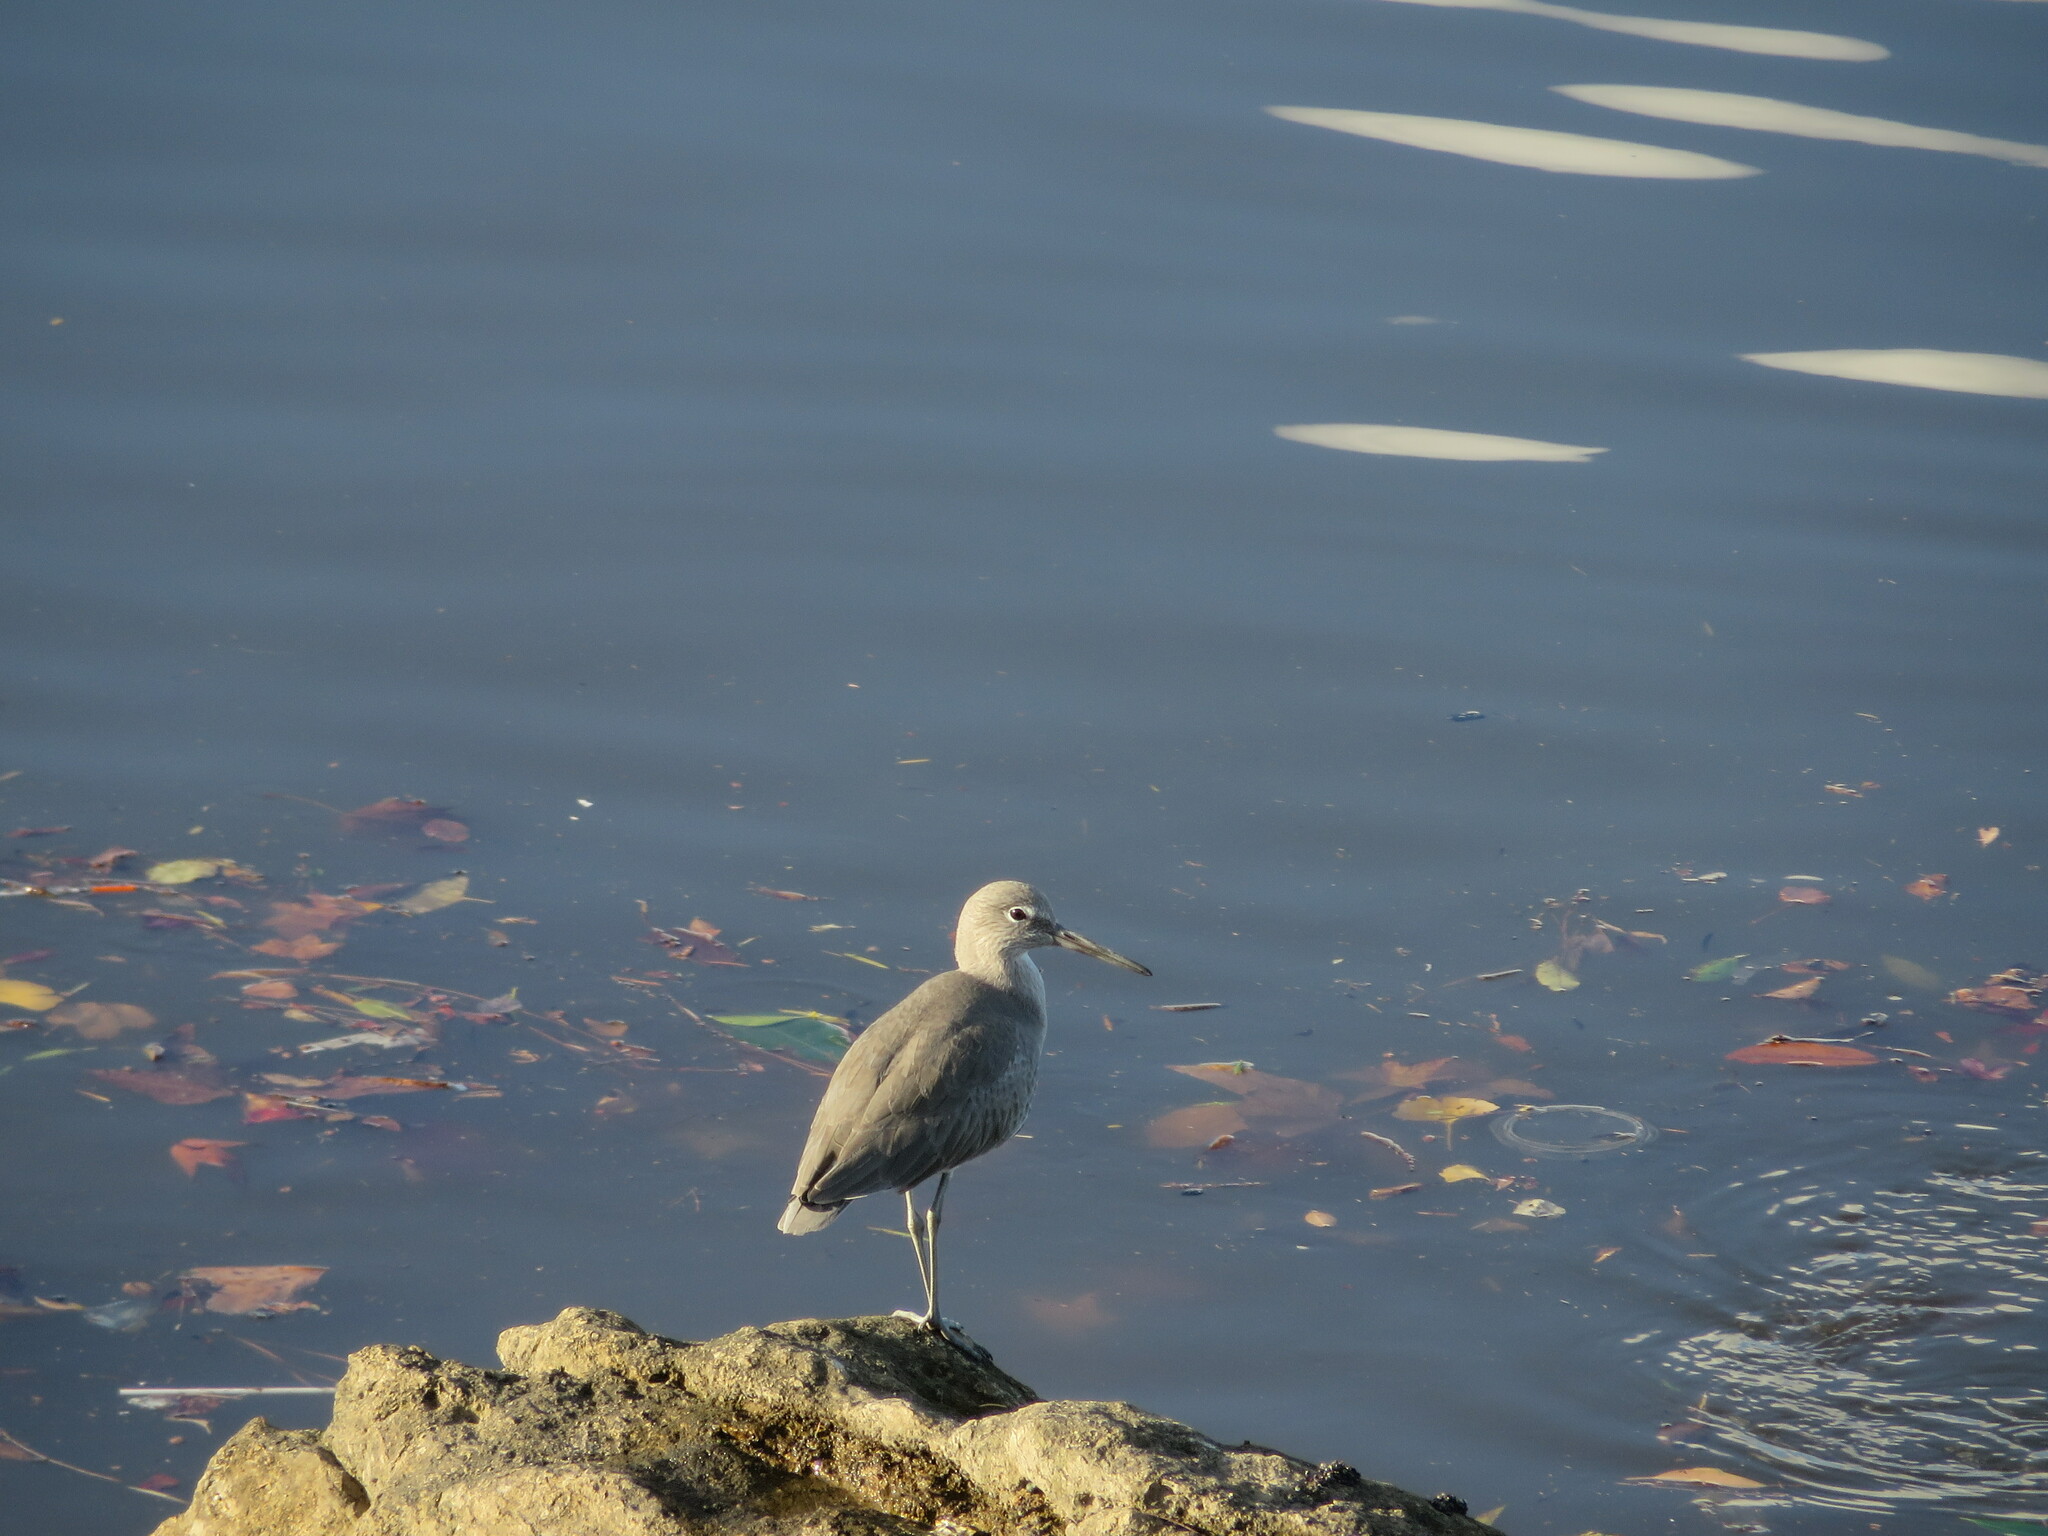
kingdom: Animalia
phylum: Chordata
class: Aves
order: Charadriiformes
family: Scolopacidae
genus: Tringa
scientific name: Tringa semipalmata
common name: Willet
